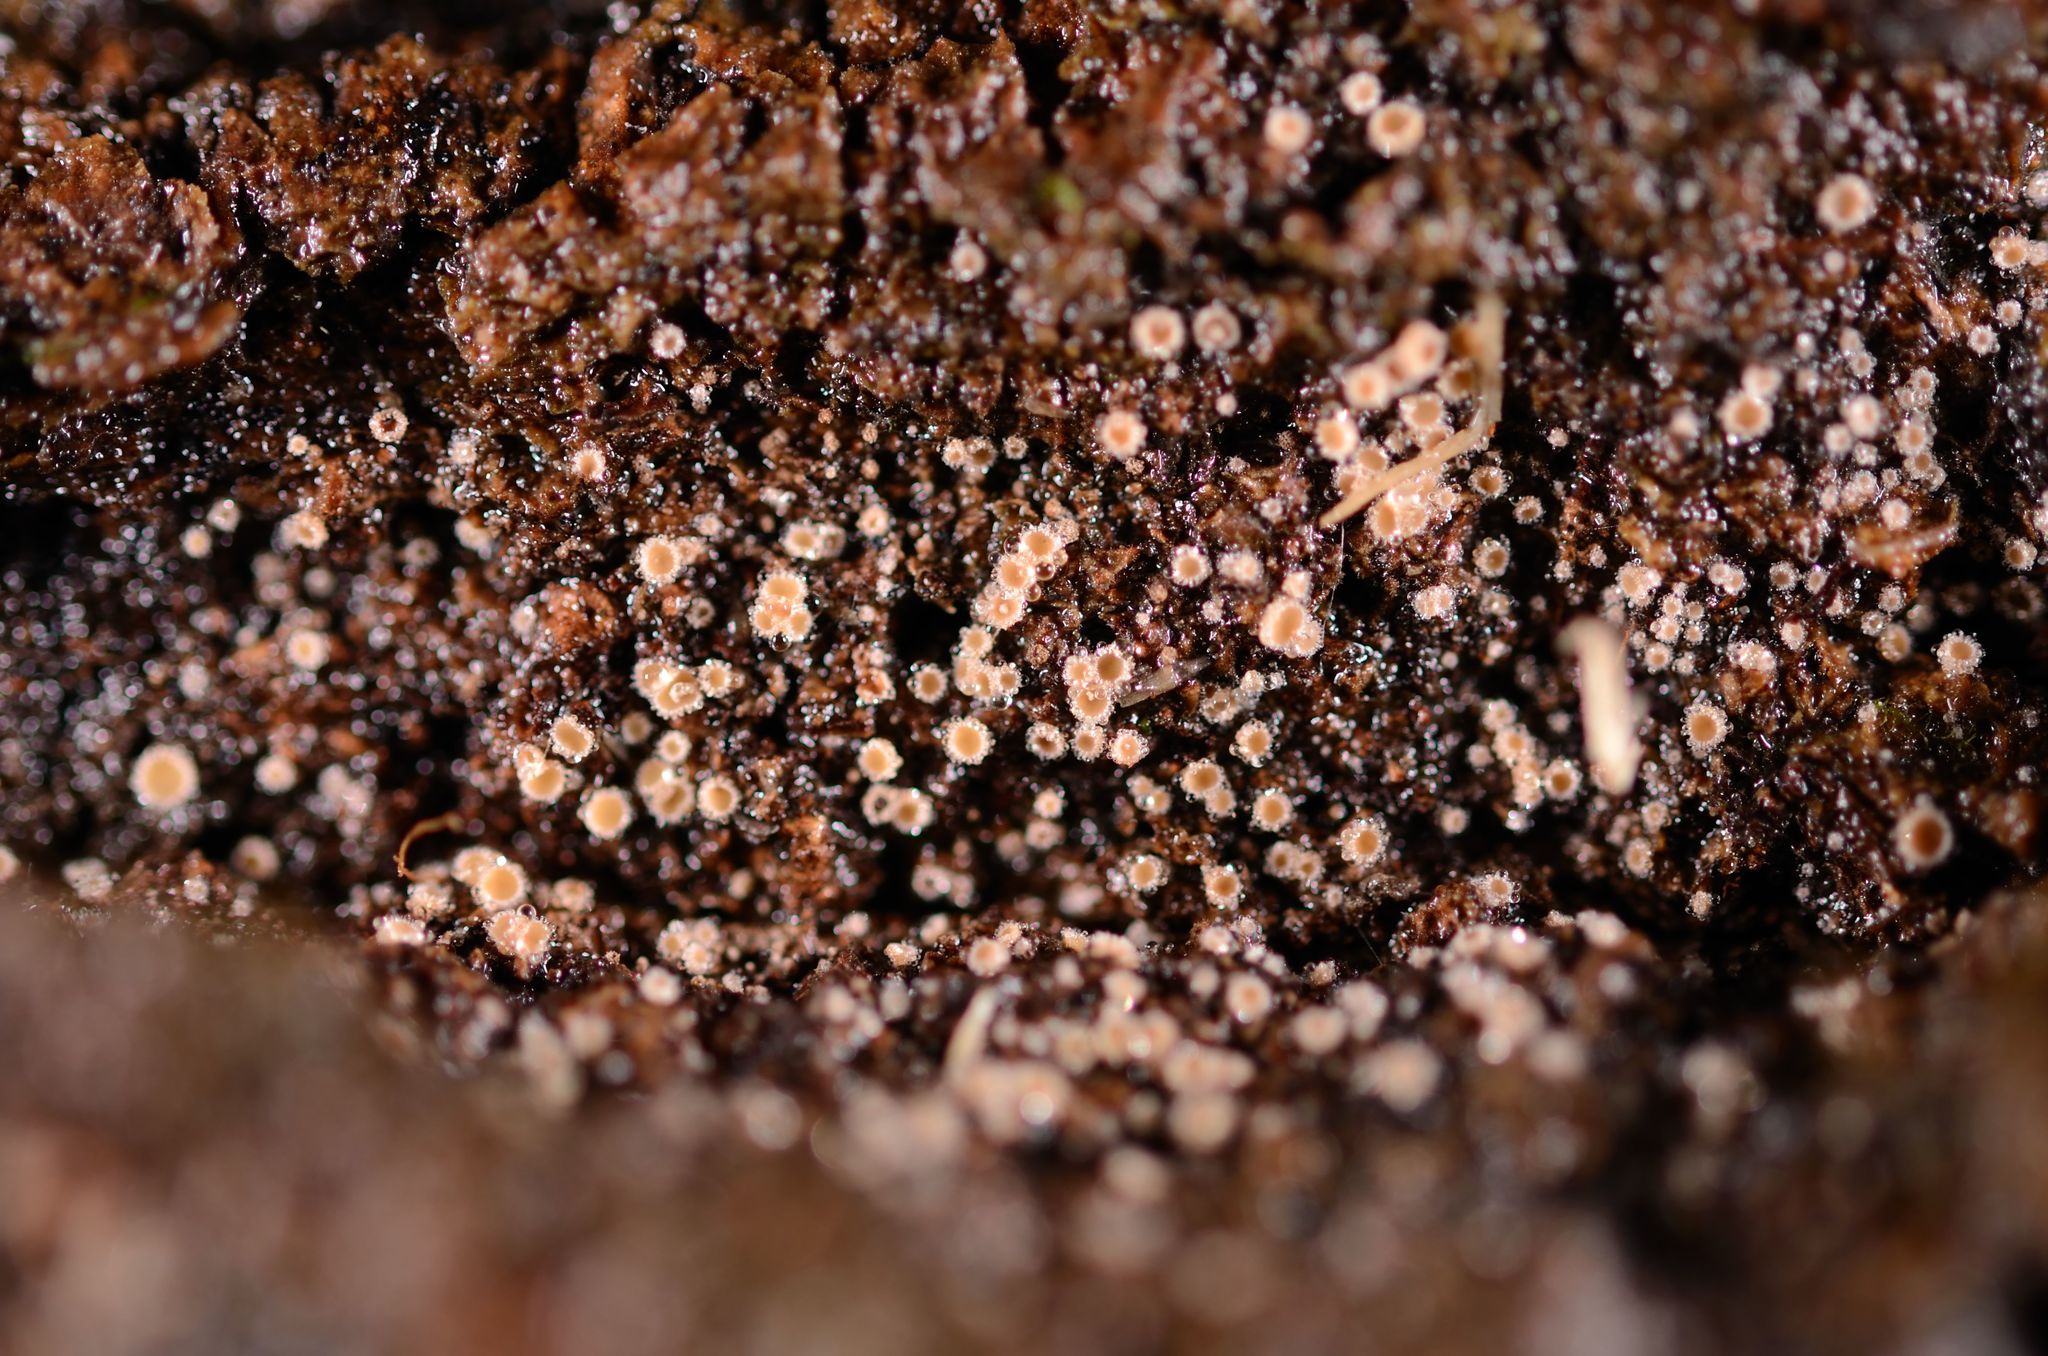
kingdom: Fungi
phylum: Ascomycota
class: Leotiomycetes
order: Helotiales
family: Lachnaceae
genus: Lachnum
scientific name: Lachnum corticale
